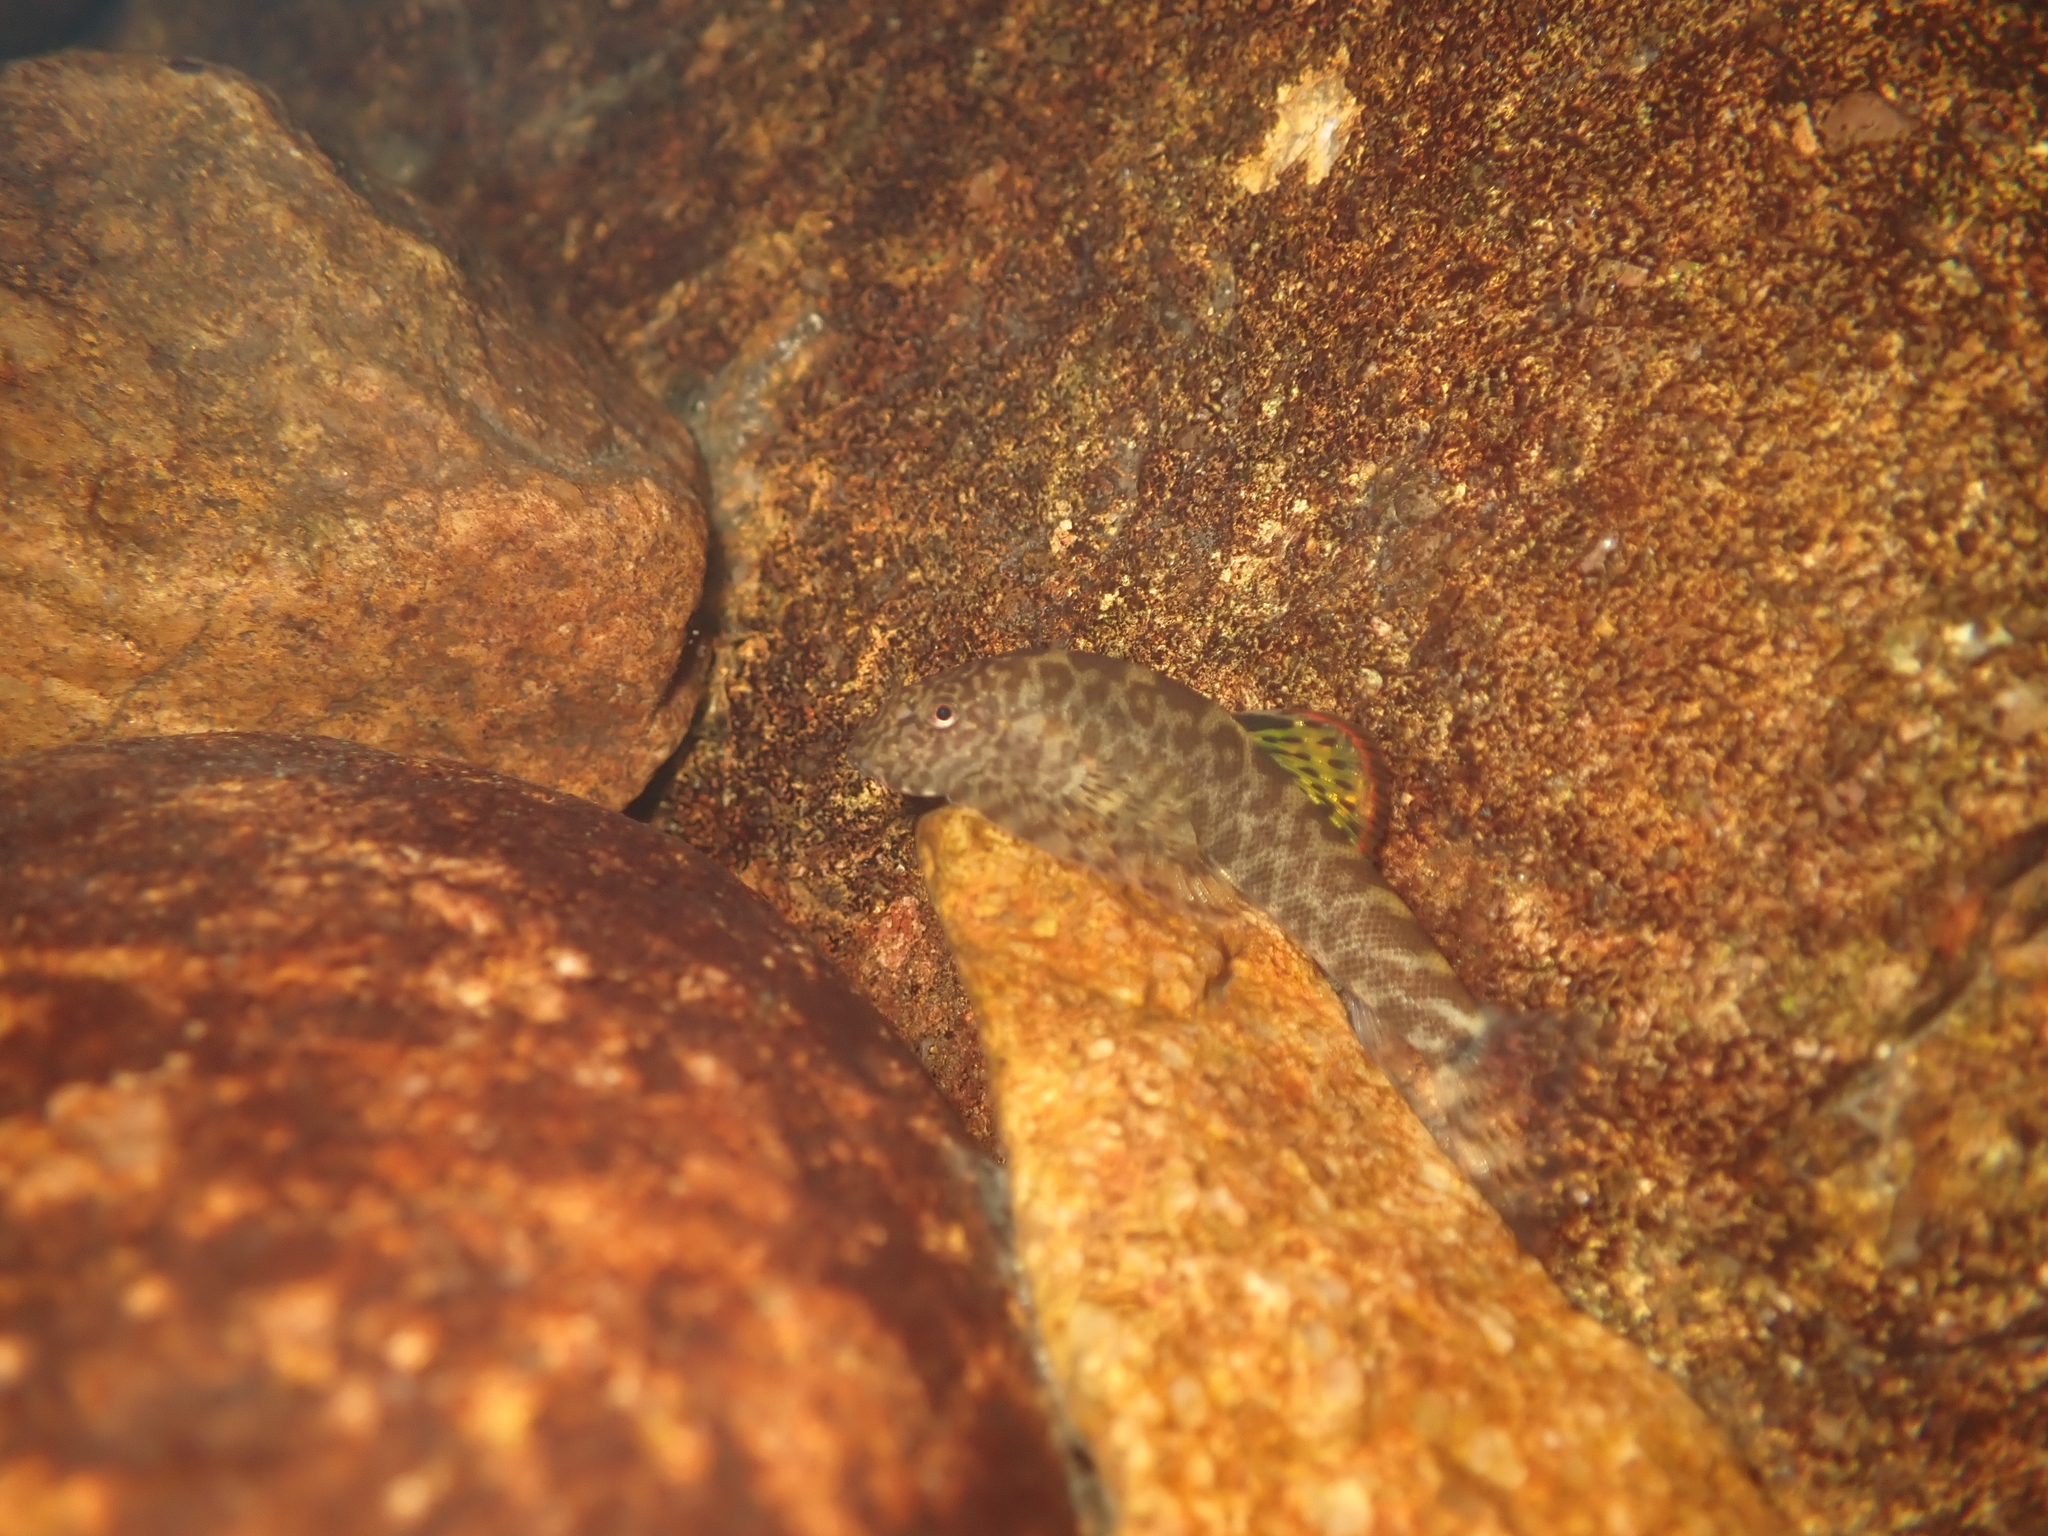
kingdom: Animalia
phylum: Chordata
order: Cypriniformes
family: Balitoridae
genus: Pseudogastromyzon
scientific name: Pseudogastromyzon myersi
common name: Sucker-belly loach
